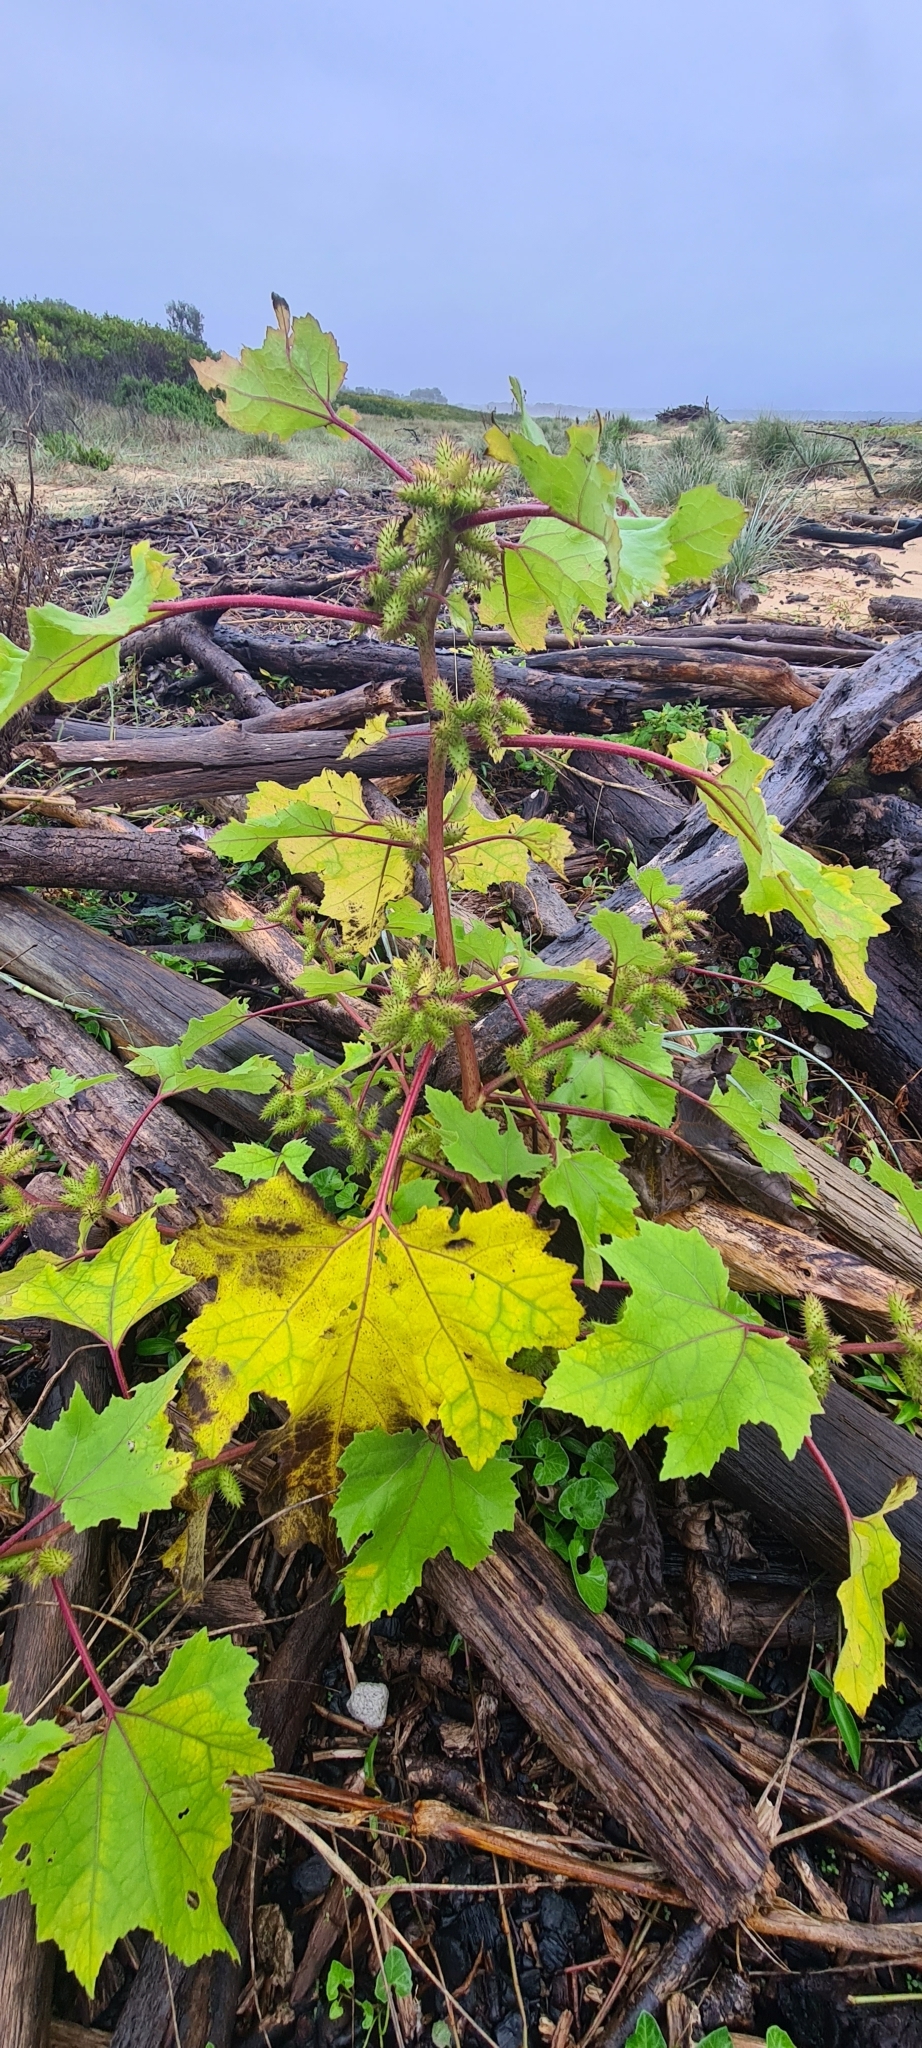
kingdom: Plantae
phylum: Tracheophyta
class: Magnoliopsida
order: Asterales
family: Asteraceae
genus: Xanthium
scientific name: Xanthium strumarium
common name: Rough cocklebur
